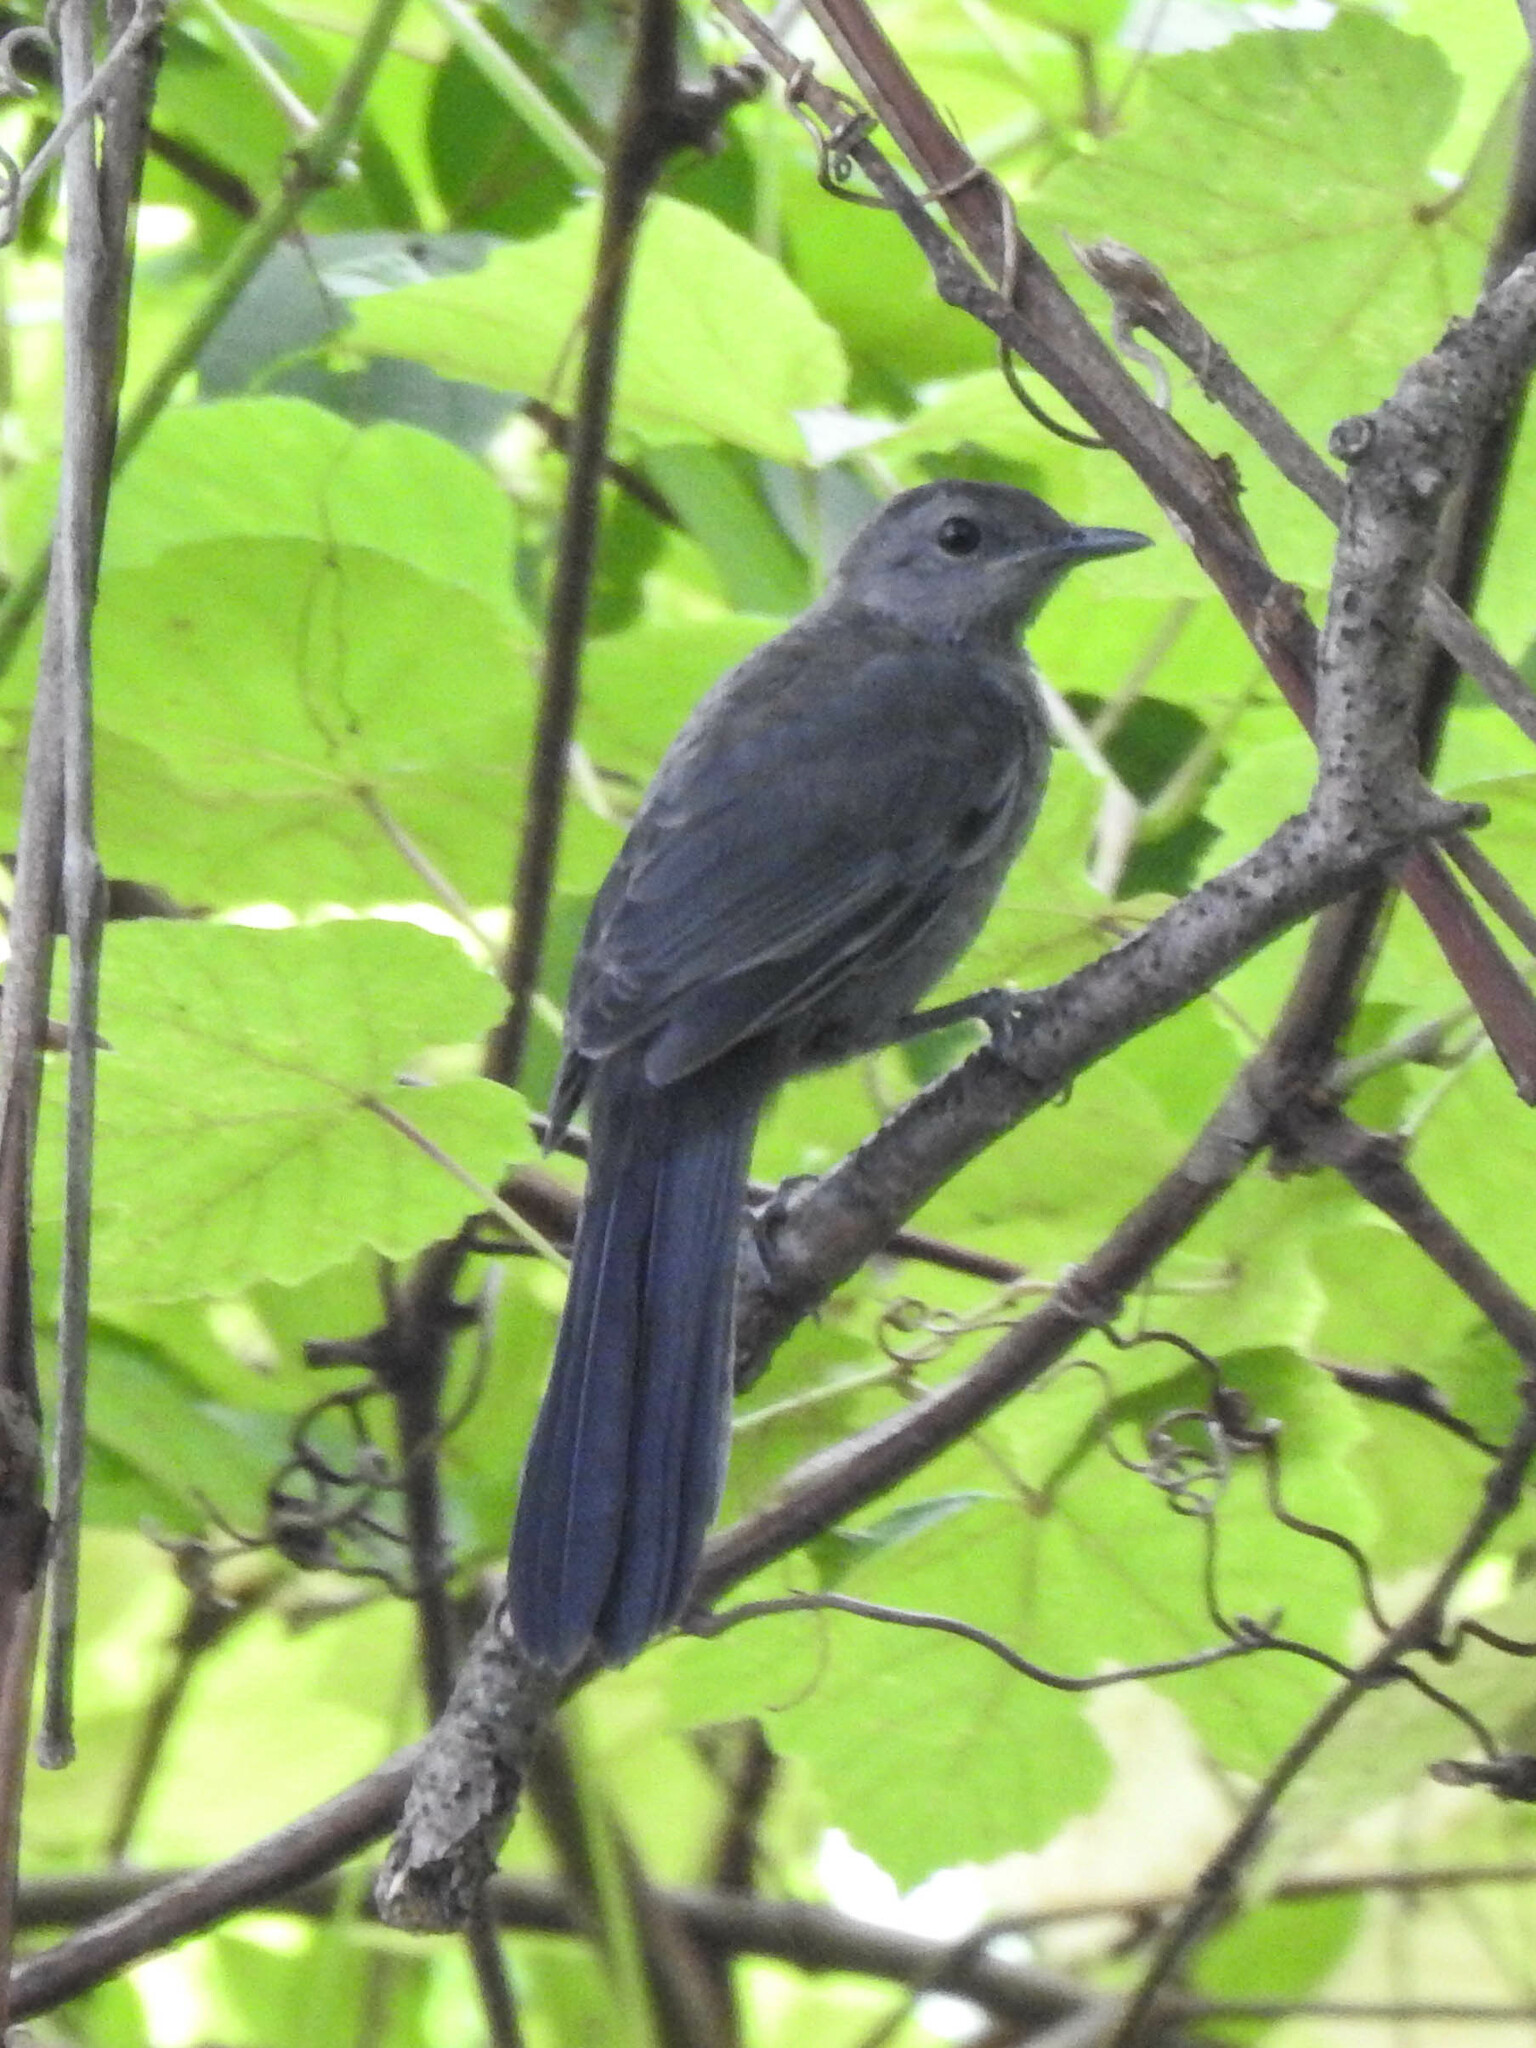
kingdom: Animalia
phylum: Chordata
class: Aves
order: Passeriformes
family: Mimidae
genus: Dumetella
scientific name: Dumetella carolinensis
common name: Gray catbird
